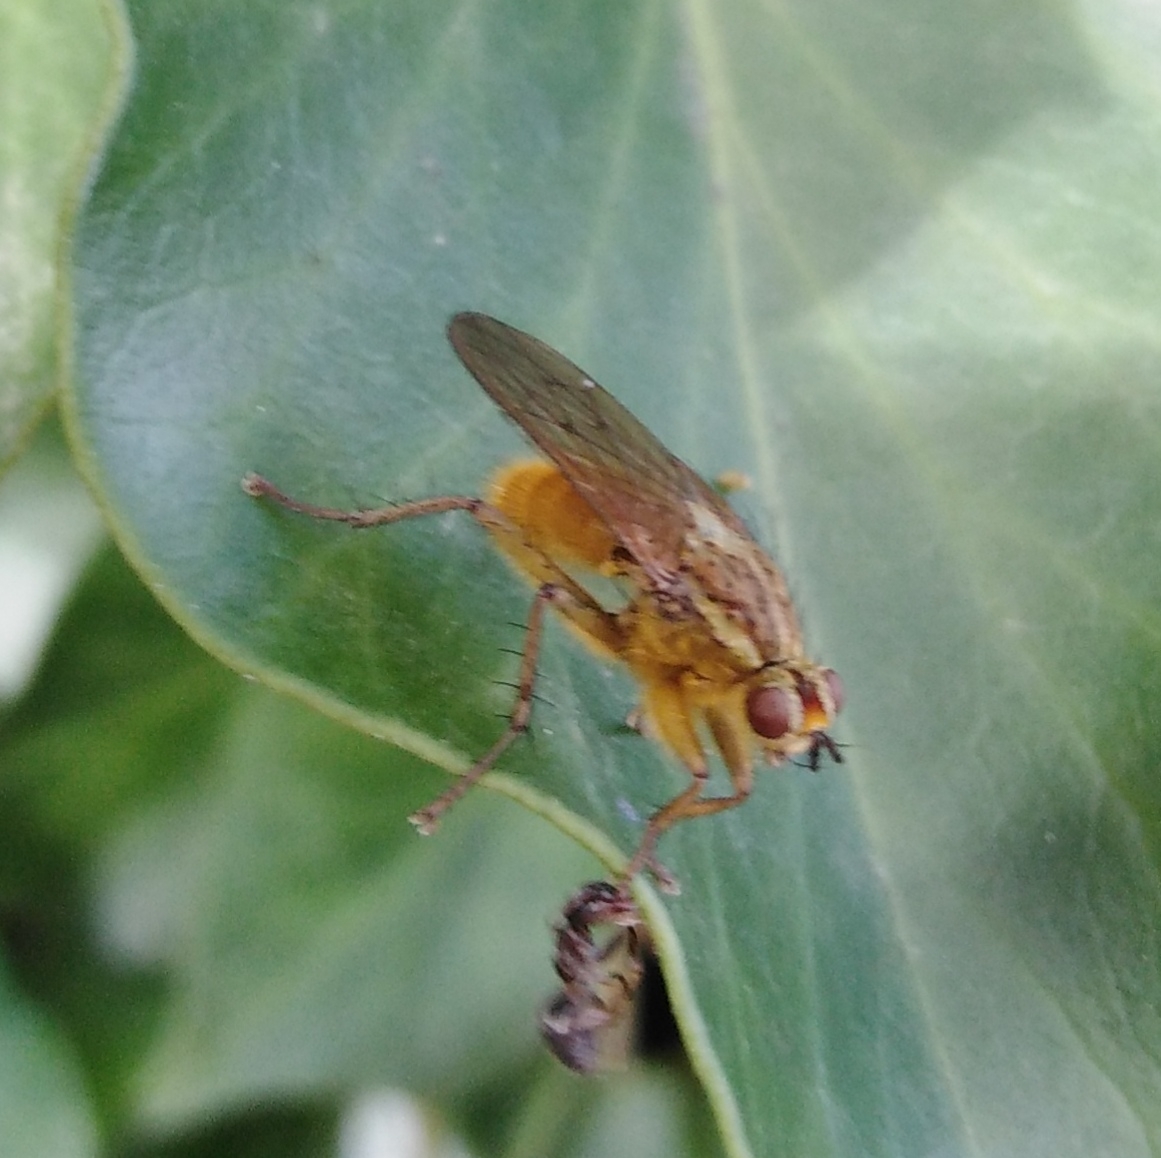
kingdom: Animalia
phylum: Arthropoda
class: Insecta
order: Diptera
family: Scathophagidae
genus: Scathophaga
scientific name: Scathophaga stercoraria
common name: Yellow dung fly
